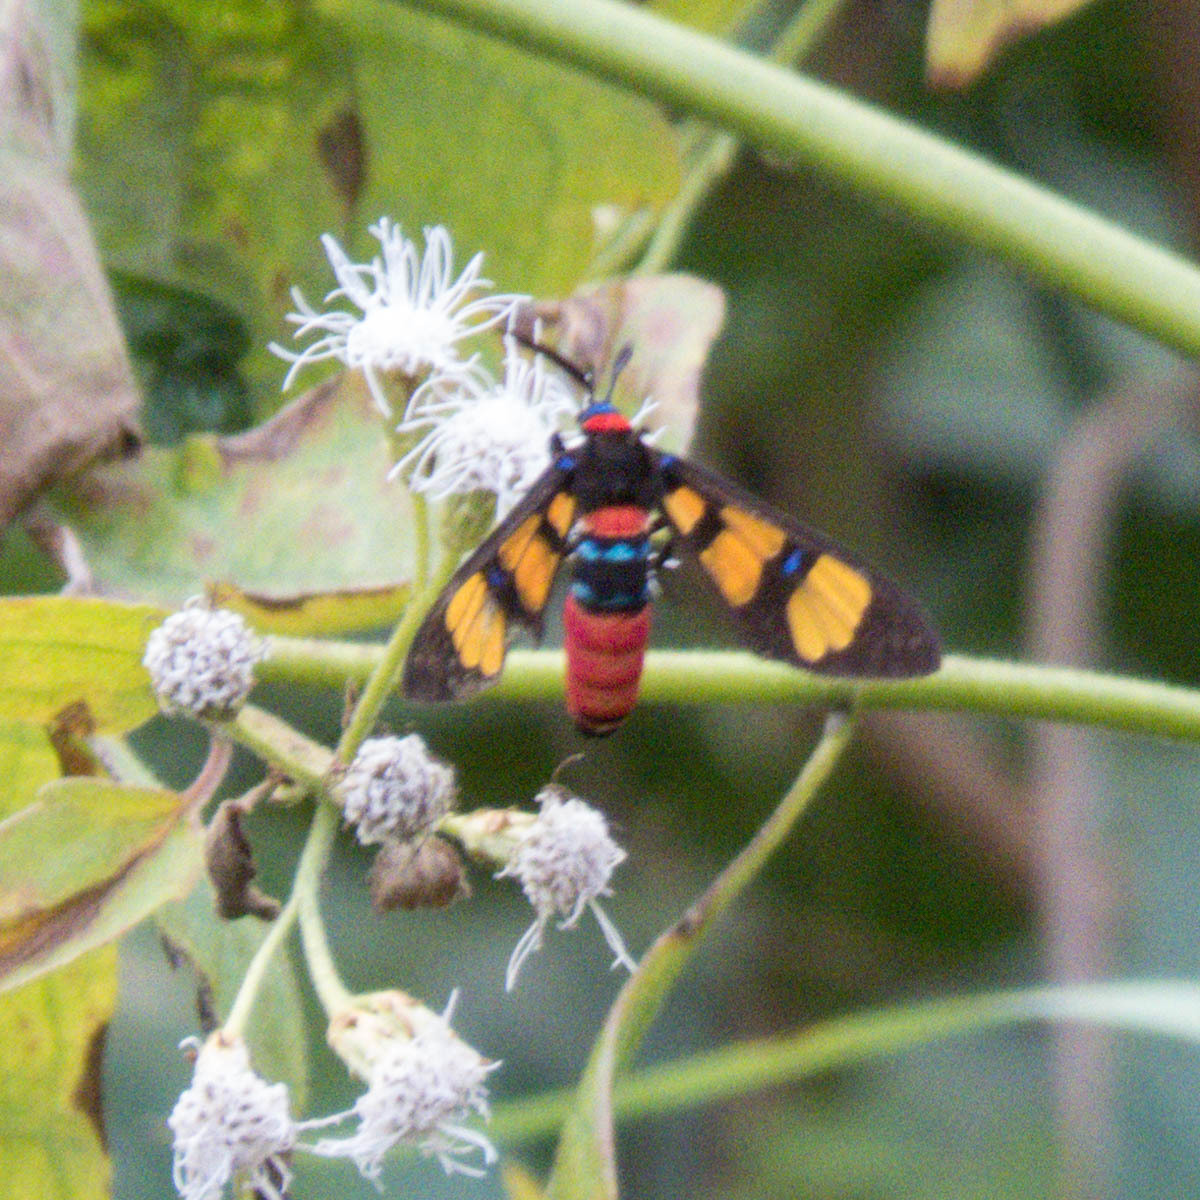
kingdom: Animalia
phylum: Arthropoda
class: Insecta
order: Lepidoptera
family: Erebidae
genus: Euchromia
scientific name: Euchromia polymena
